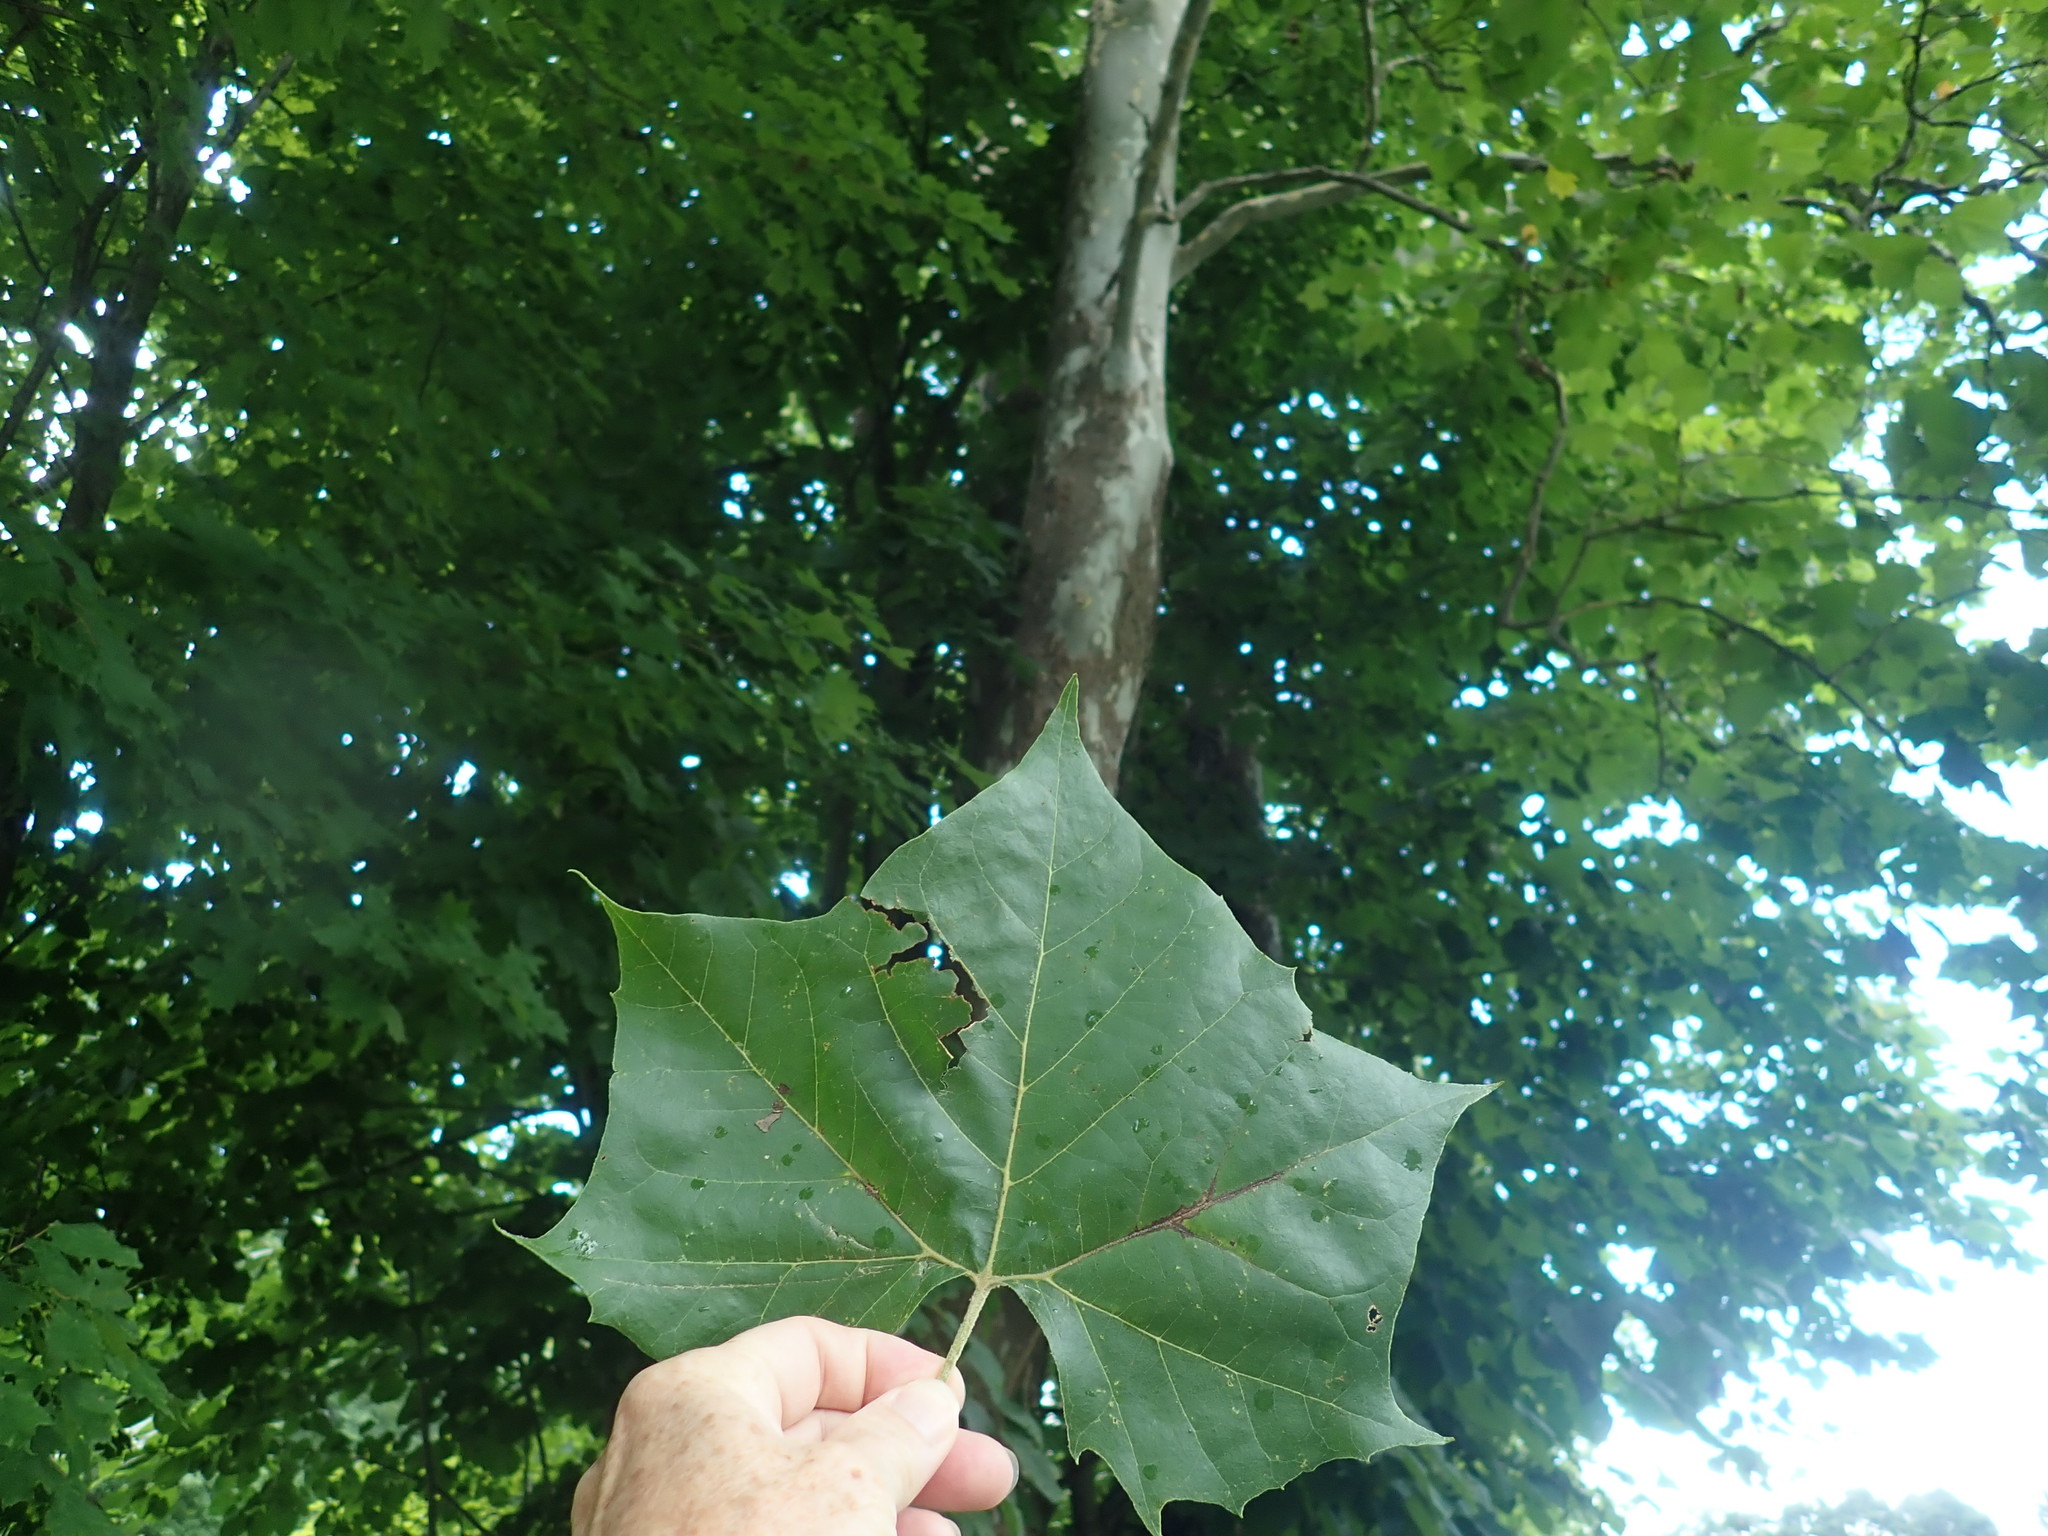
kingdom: Plantae
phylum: Tracheophyta
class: Magnoliopsida
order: Proteales
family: Platanaceae
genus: Platanus
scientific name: Platanus occidentalis
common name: American sycamore
